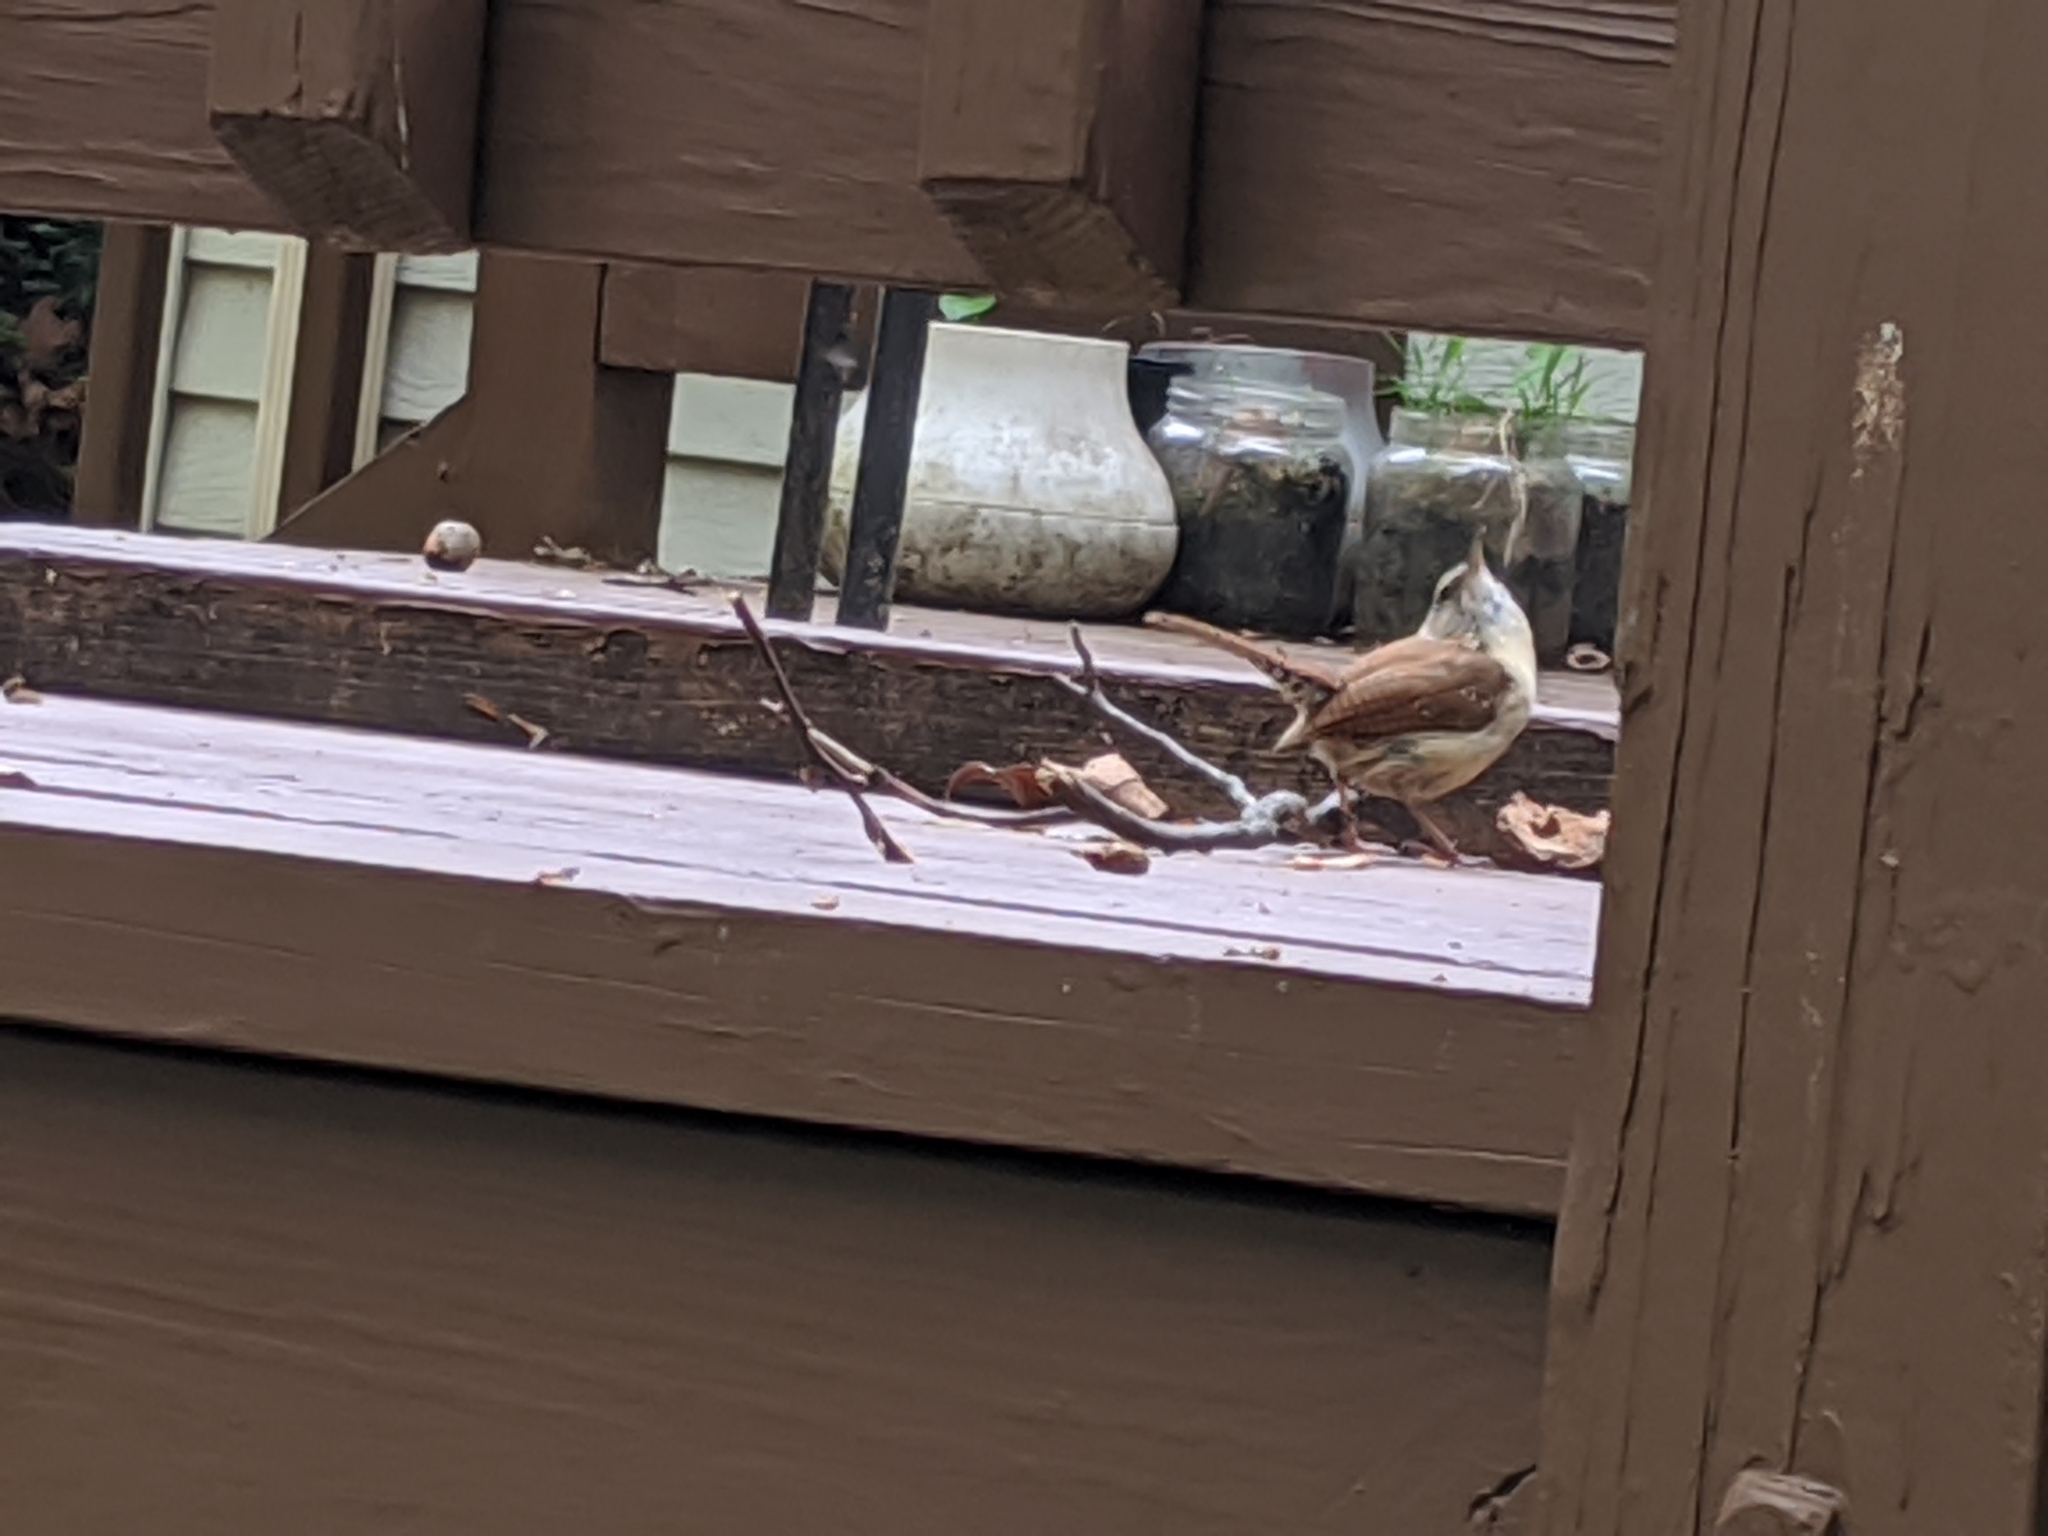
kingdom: Animalia
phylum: Chordata
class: Aves
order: Passeriformes
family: Troglodytidae
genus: Thryothorus
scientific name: Thryothorus ludovicianus
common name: Carolina wren
